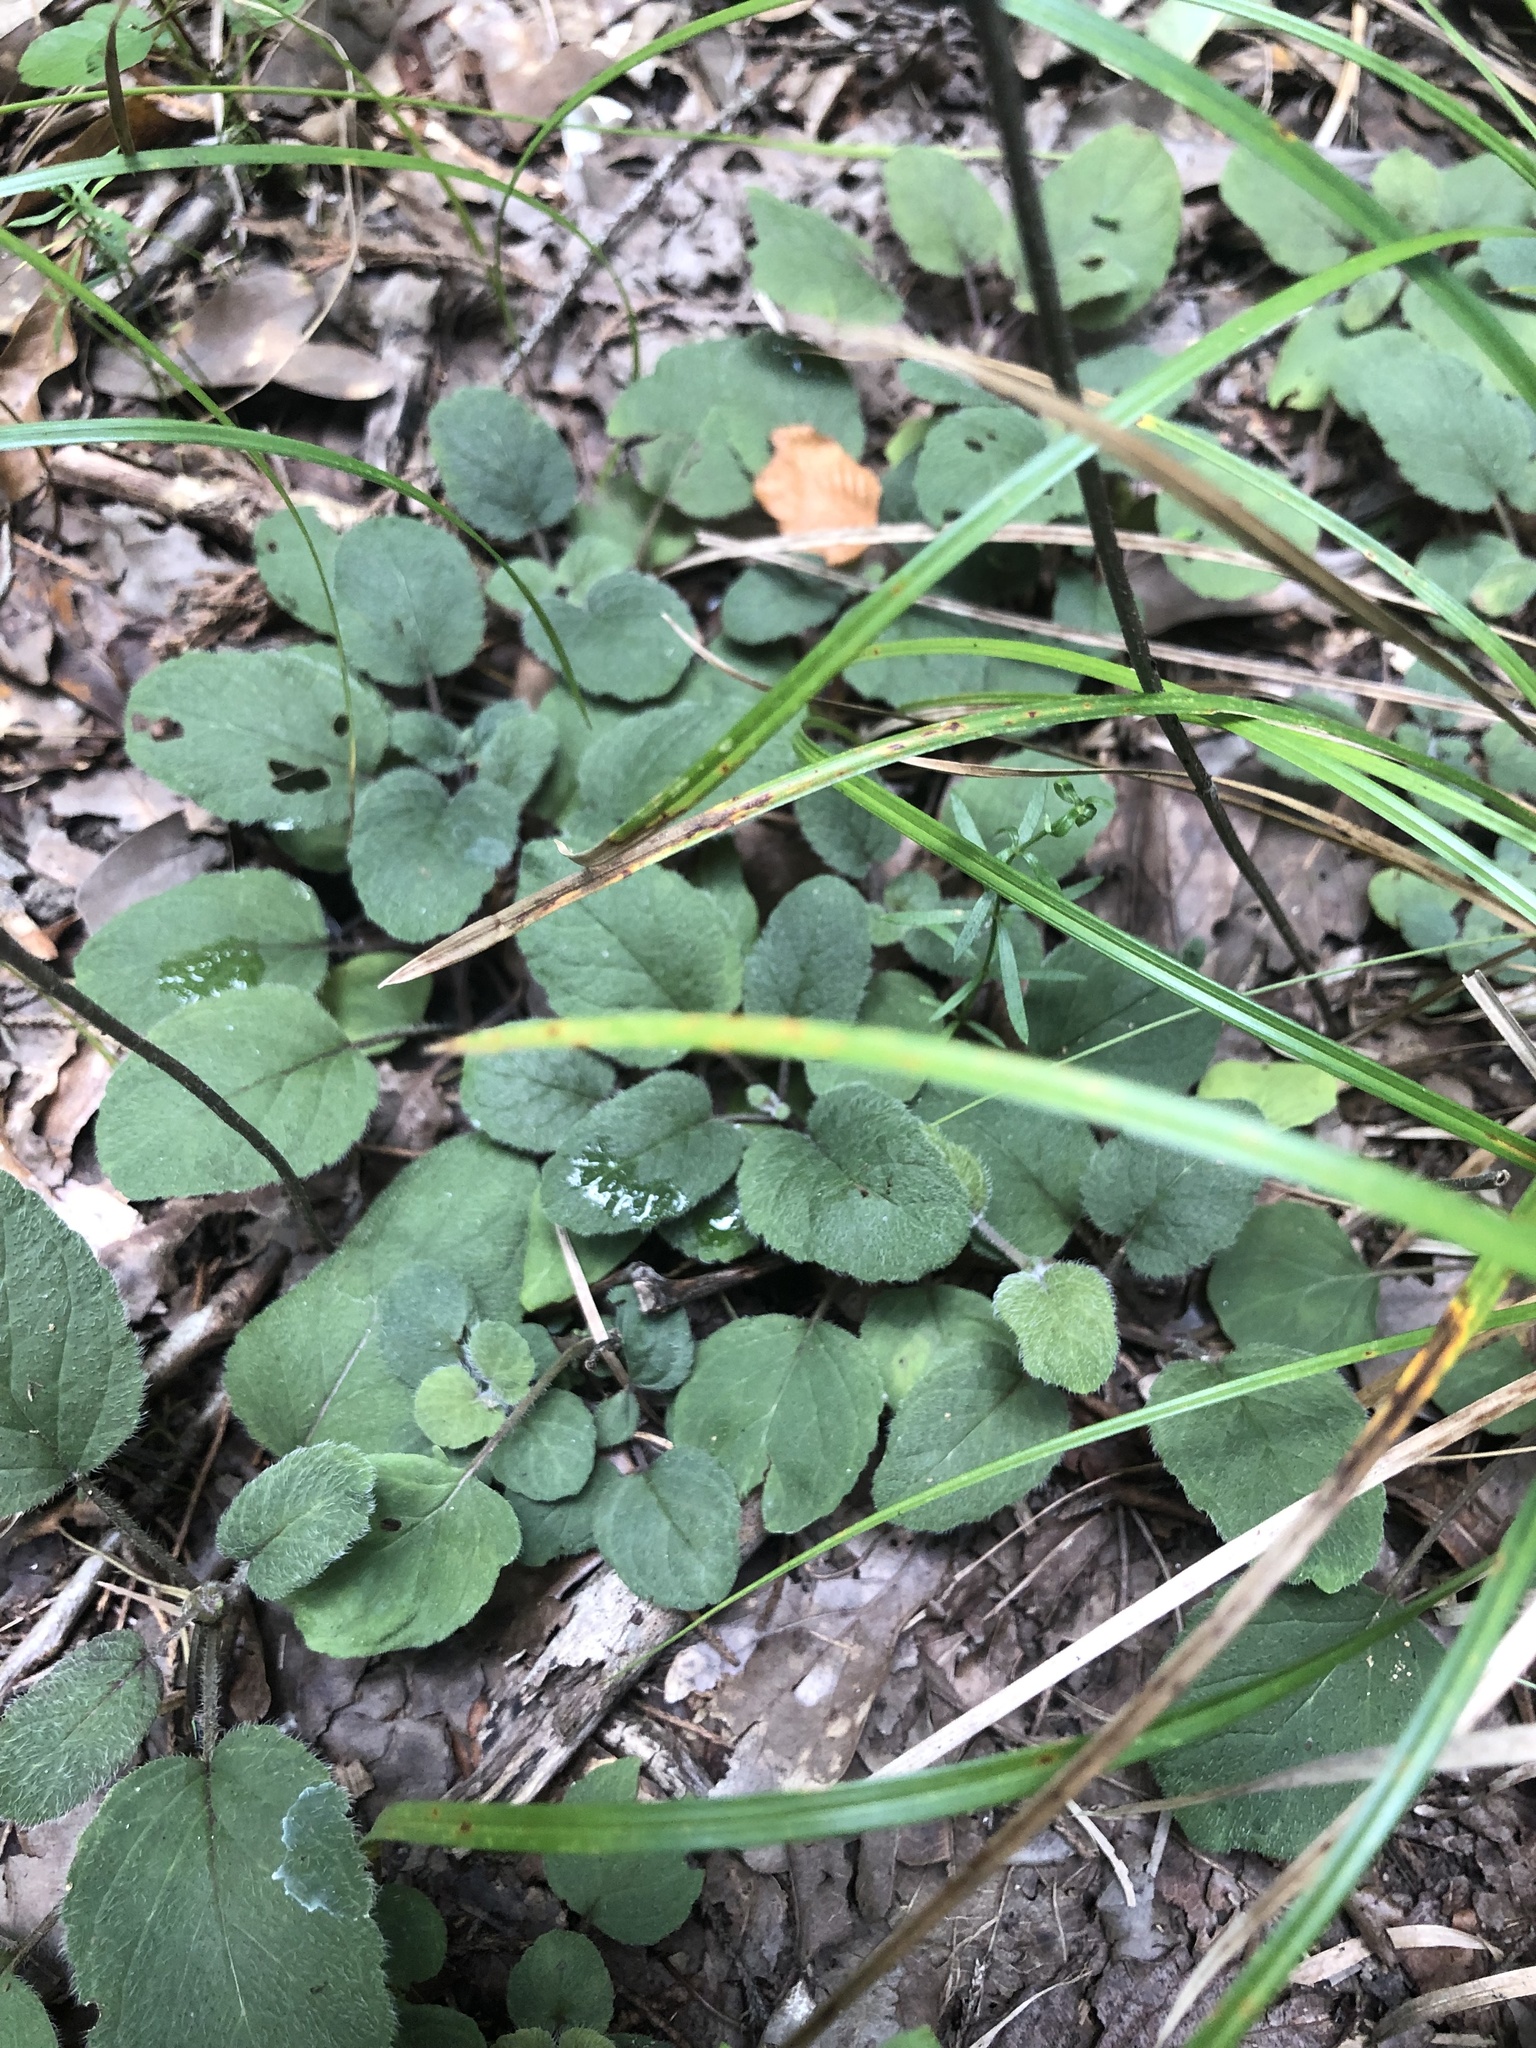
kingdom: Plantae
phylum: Tracheophyta
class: Magnoliopsida
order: Lamiales
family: Lamiaceae
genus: Blephilia
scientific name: Blephilia ciliata
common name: Downy blephilia
